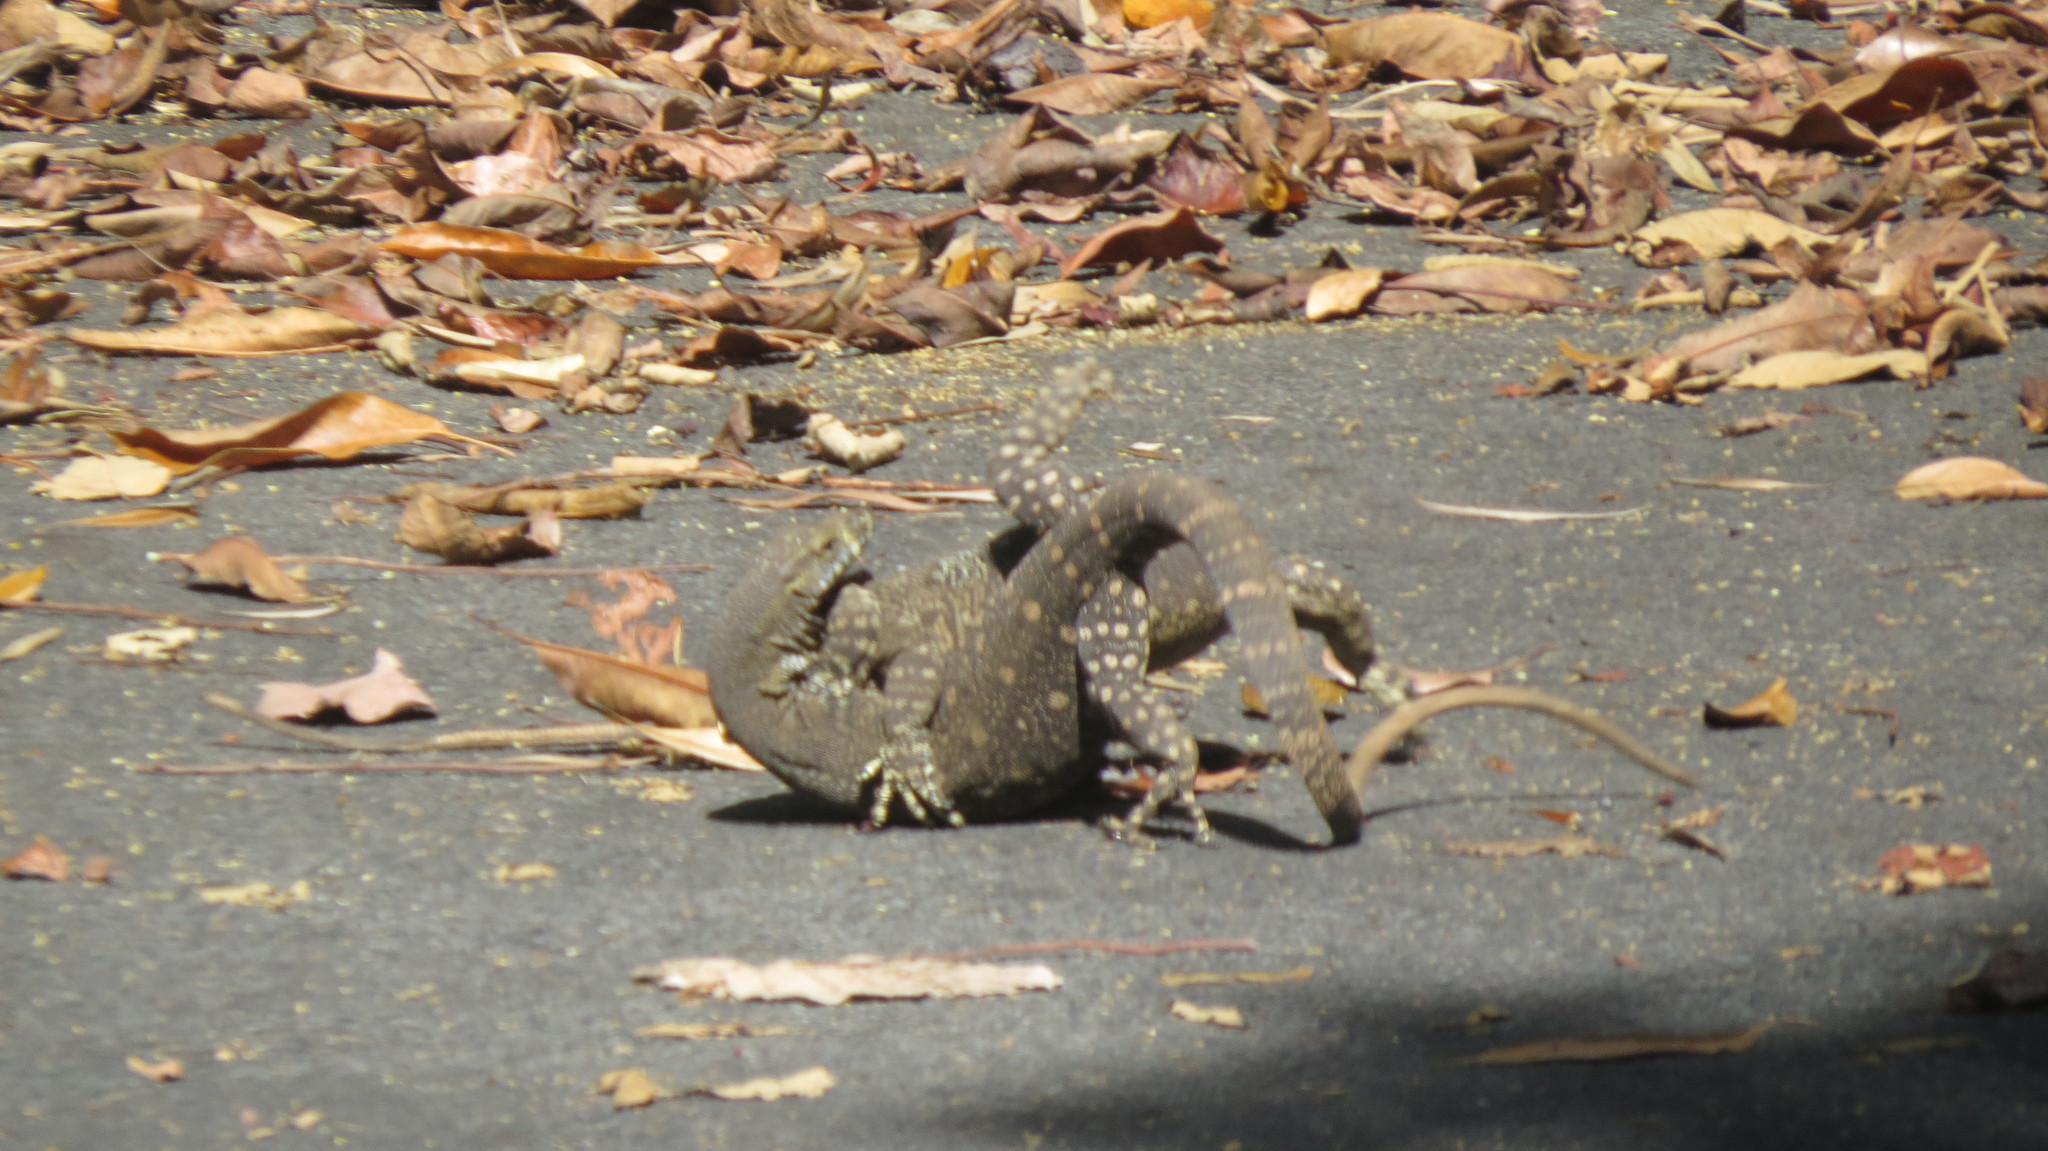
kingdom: Animalia
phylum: Chordata
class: Squamata
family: Varanidae
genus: Varanus
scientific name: Varanus varius
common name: Lace monitor
